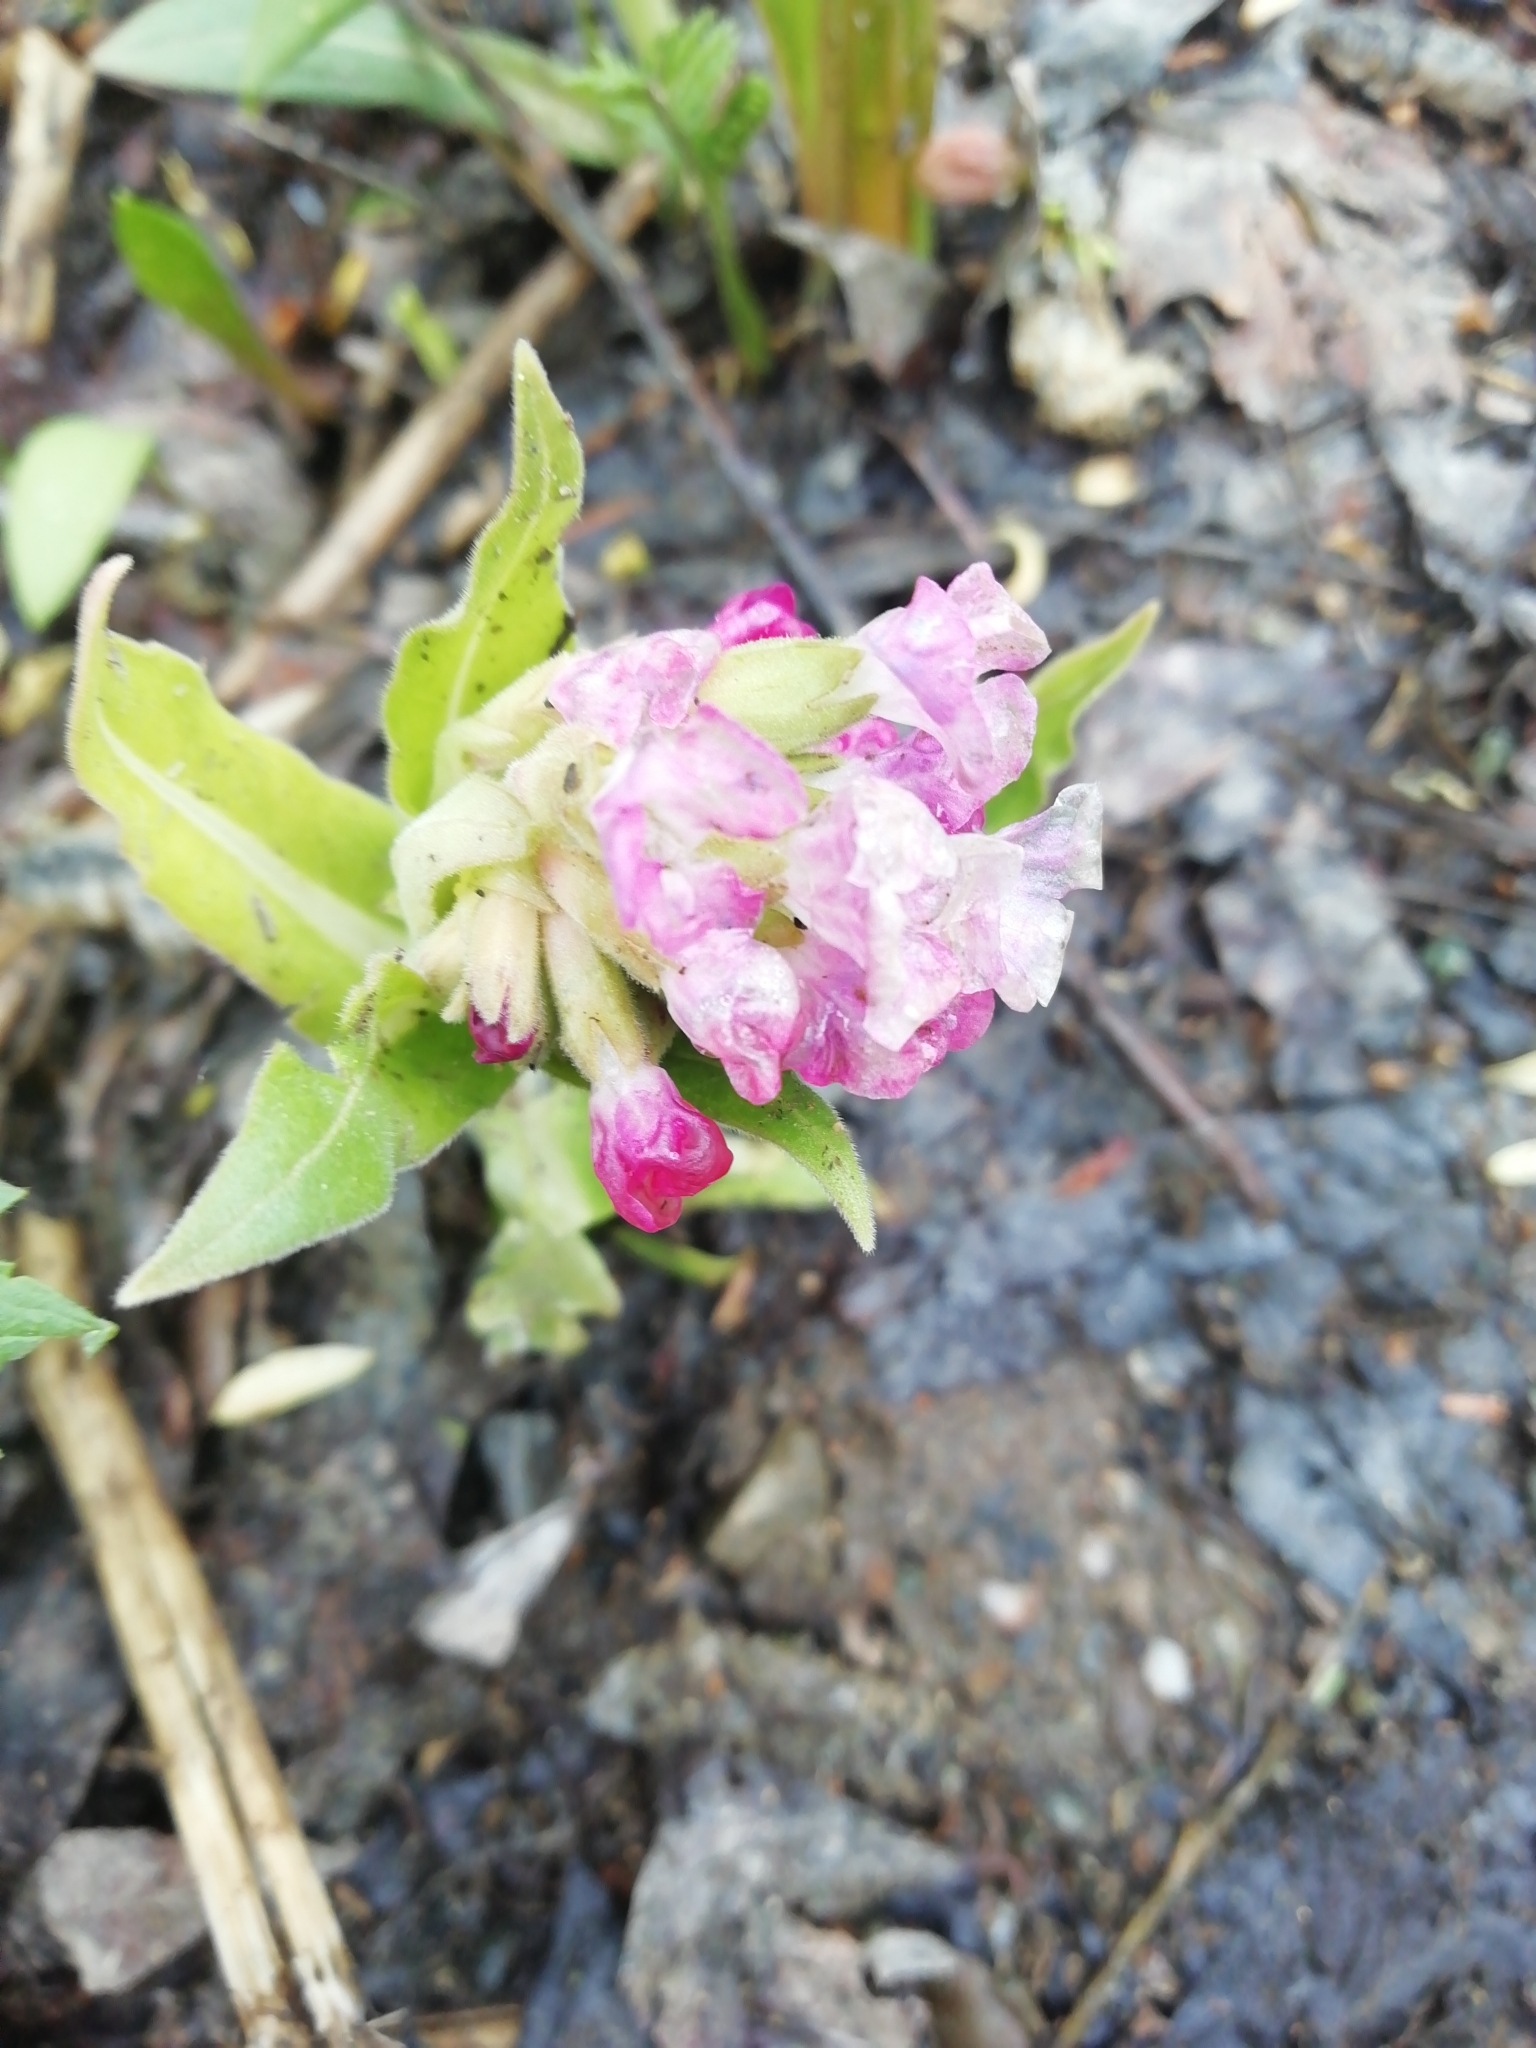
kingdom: Plantae
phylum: Tracheophyta
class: Magnoliopsida
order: Boraginales
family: Boraginaceae
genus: Pulmonaria
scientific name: Pulmonaria mollis
